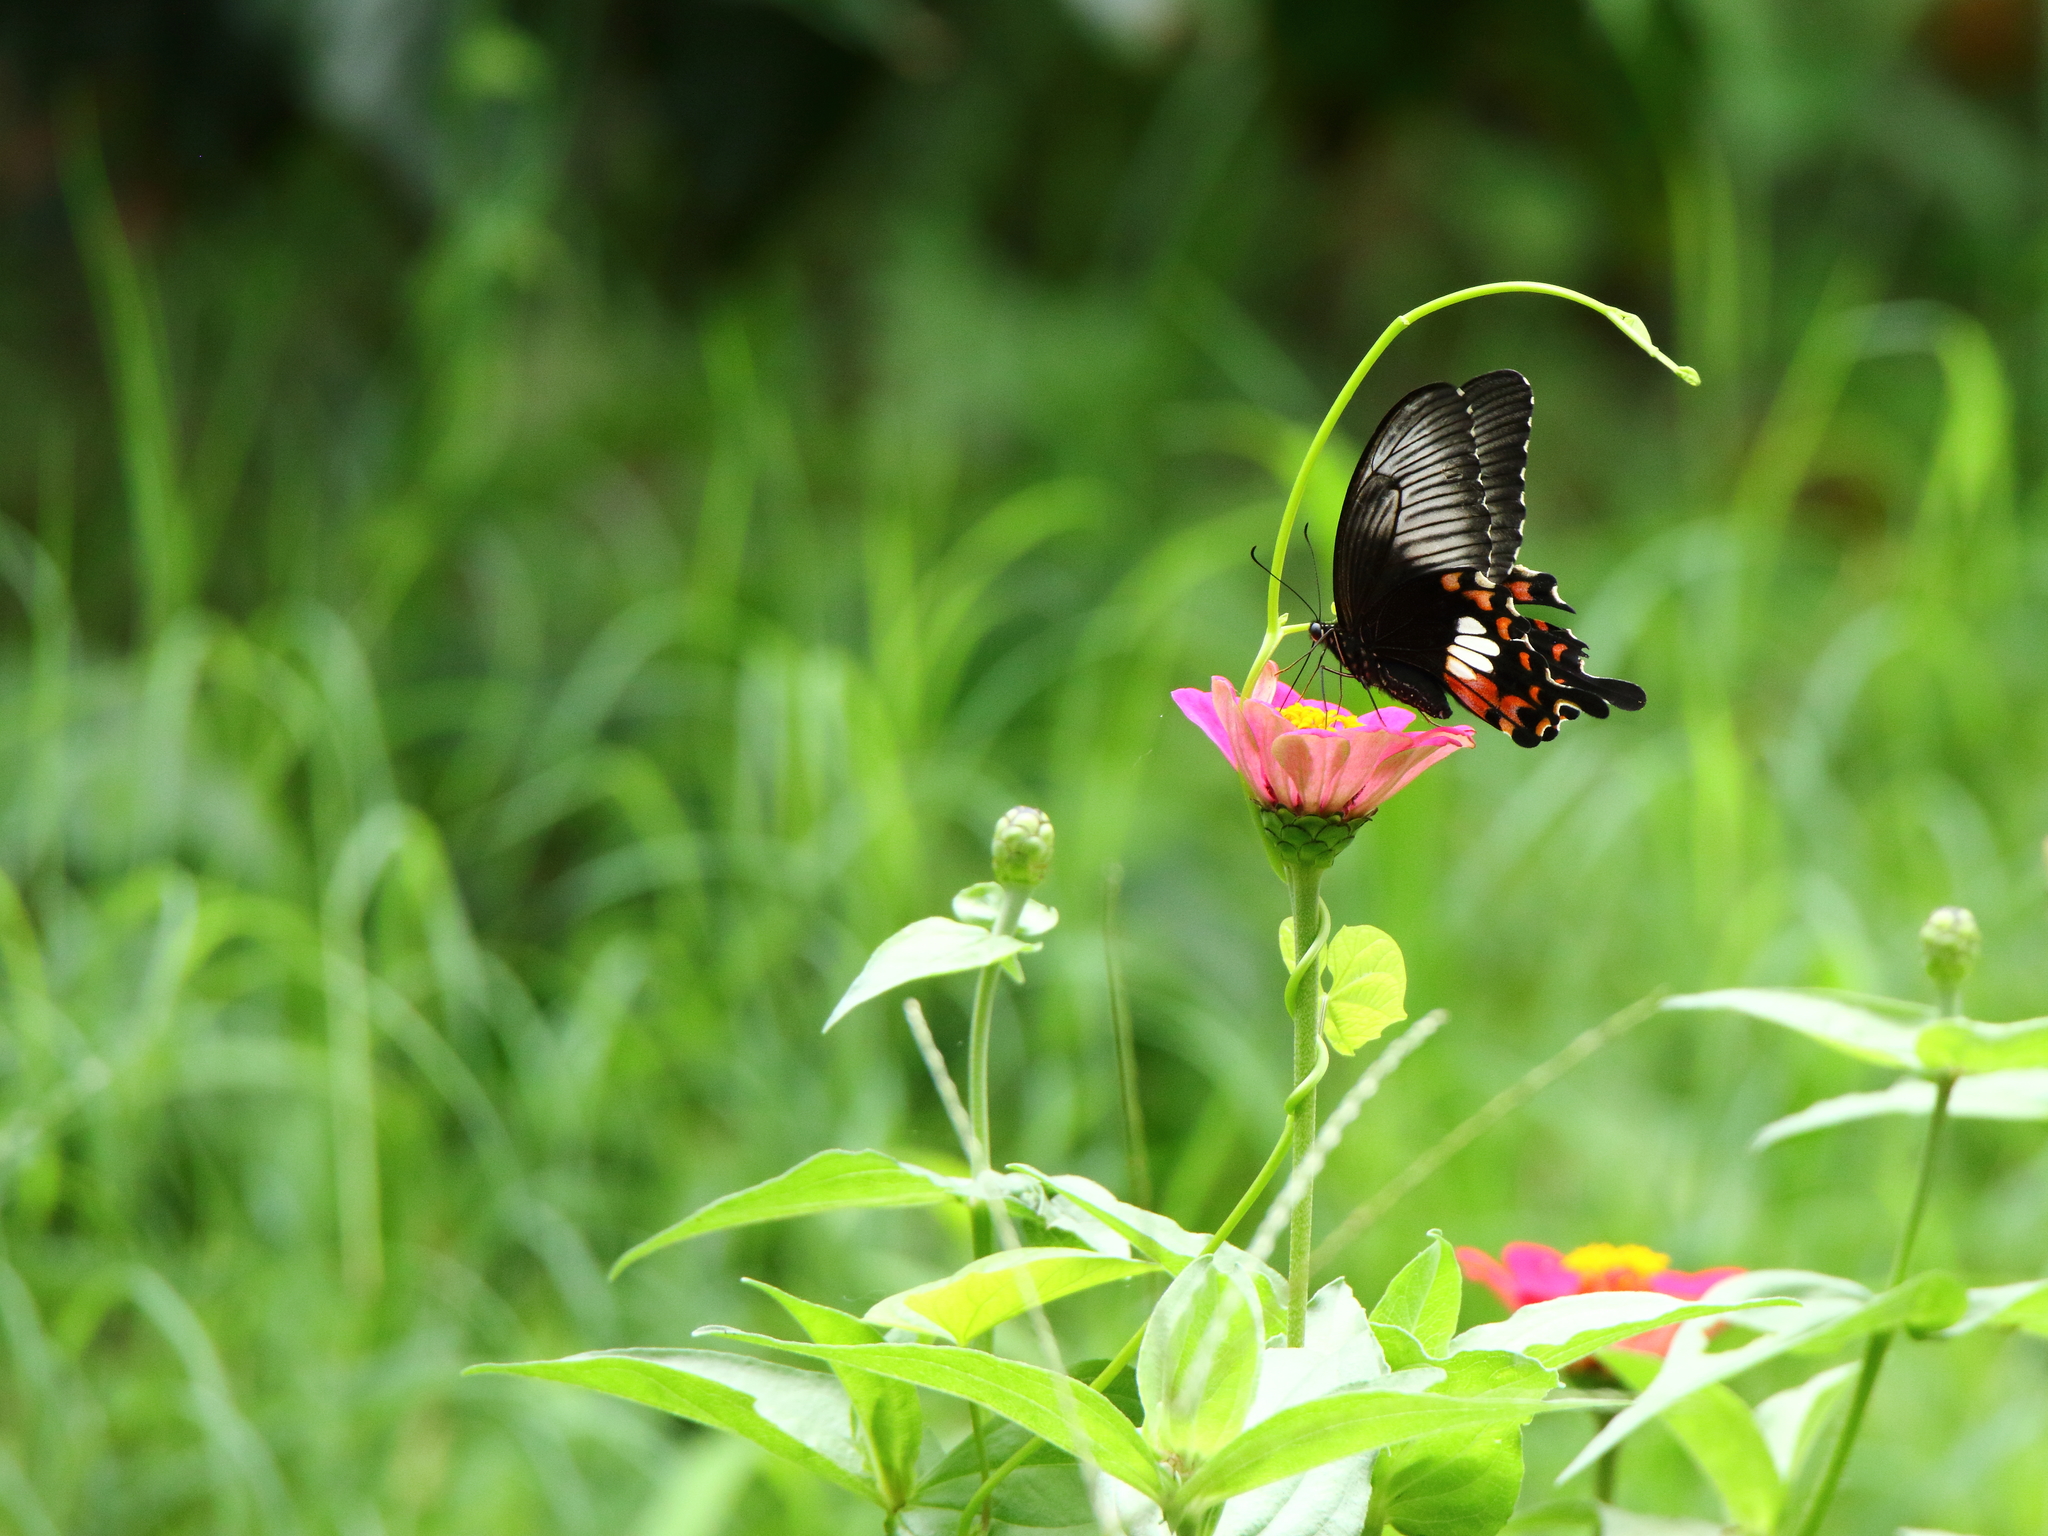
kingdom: Animalia
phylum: Arthropoda
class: Insecta
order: Lepidoptera
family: Papilionidae
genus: Papilio
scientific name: Papilio polytes
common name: Common mormon
